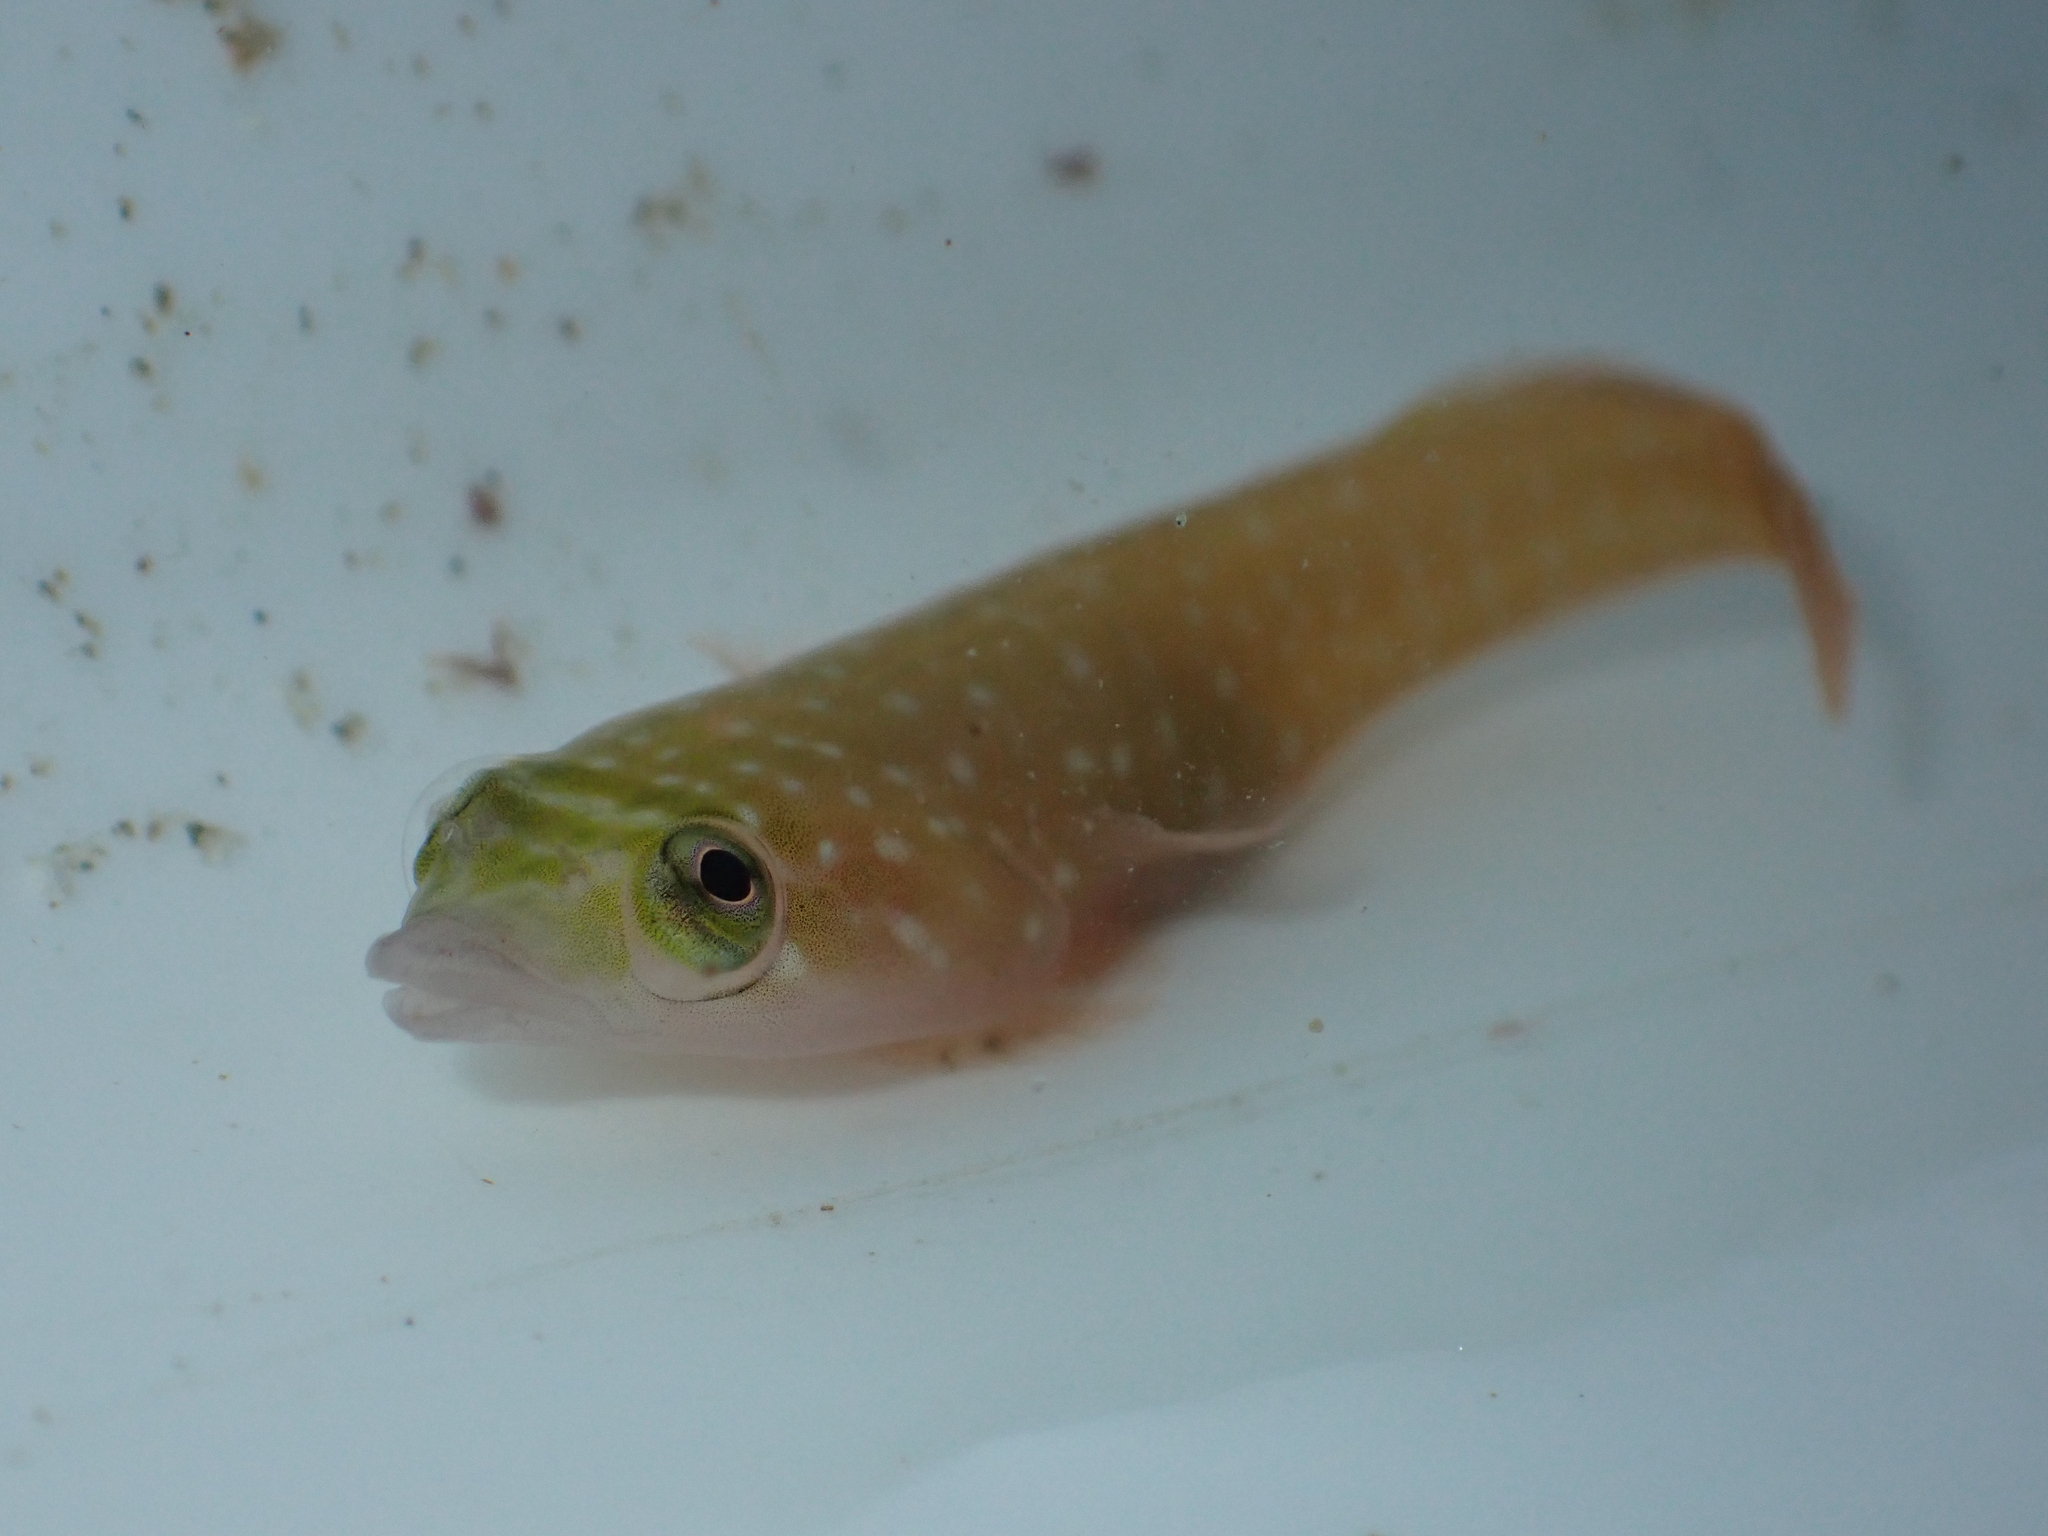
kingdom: Animalia
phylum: Chordata
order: Gobiesociformes
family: Gobiesocidae
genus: Dellichthys
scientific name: Dellichthys trnskii
